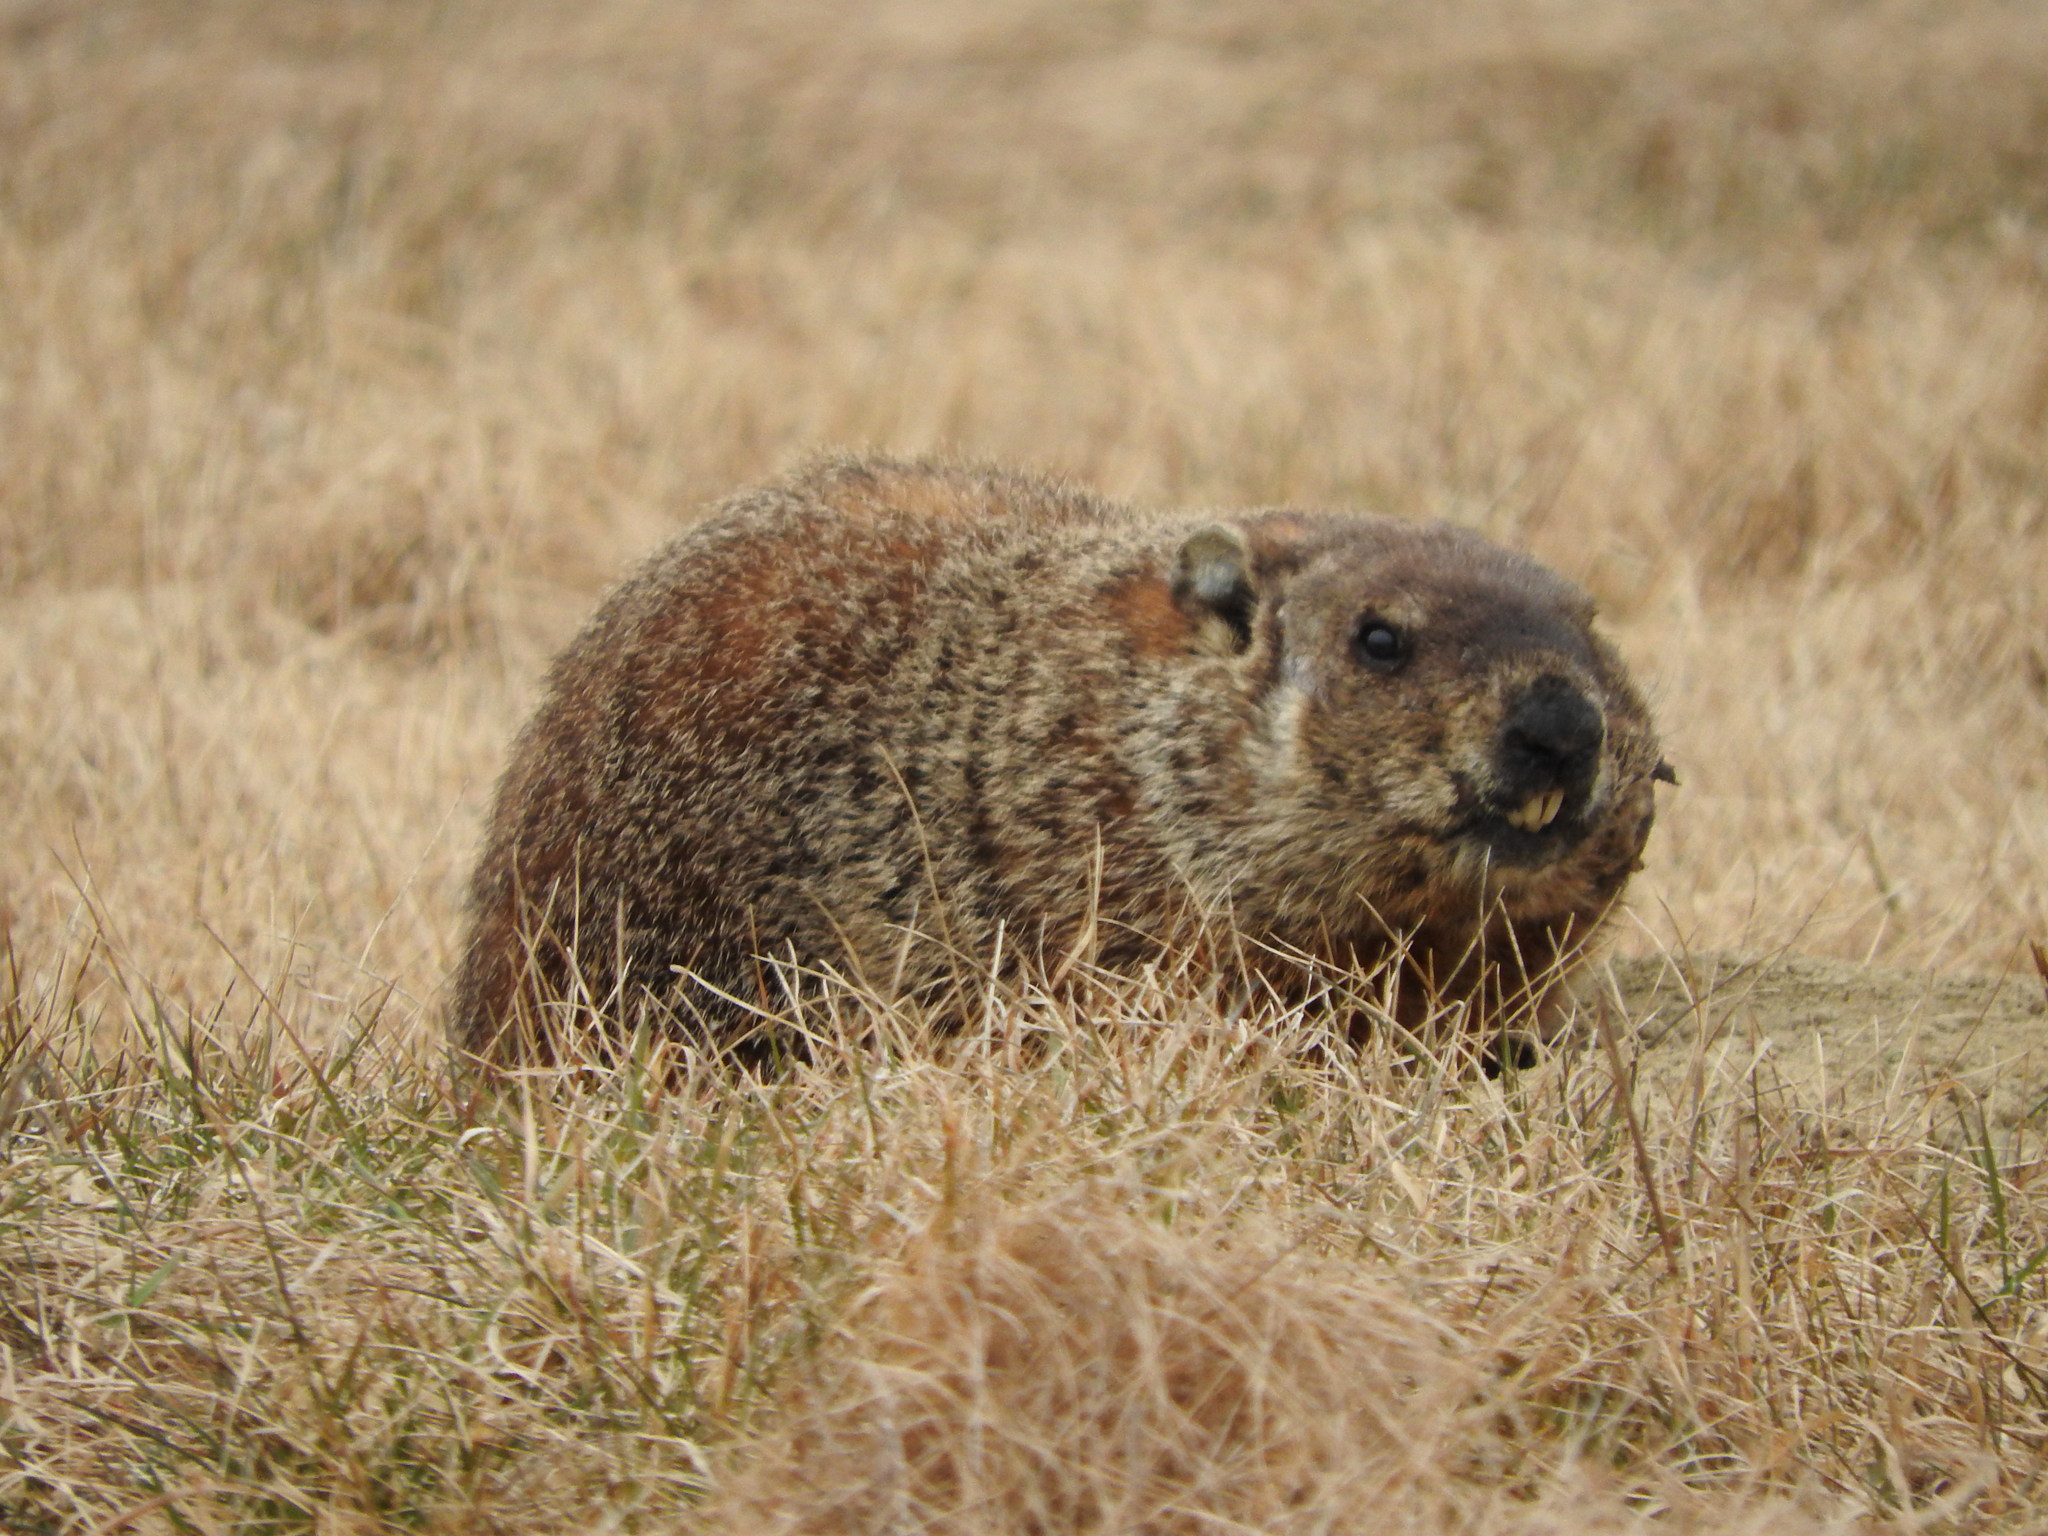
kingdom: Animalia
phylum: Chordata
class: Mammalia
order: Rodentia
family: Sciuridae
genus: Marmota
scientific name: Marmota monax
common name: Groundhog
